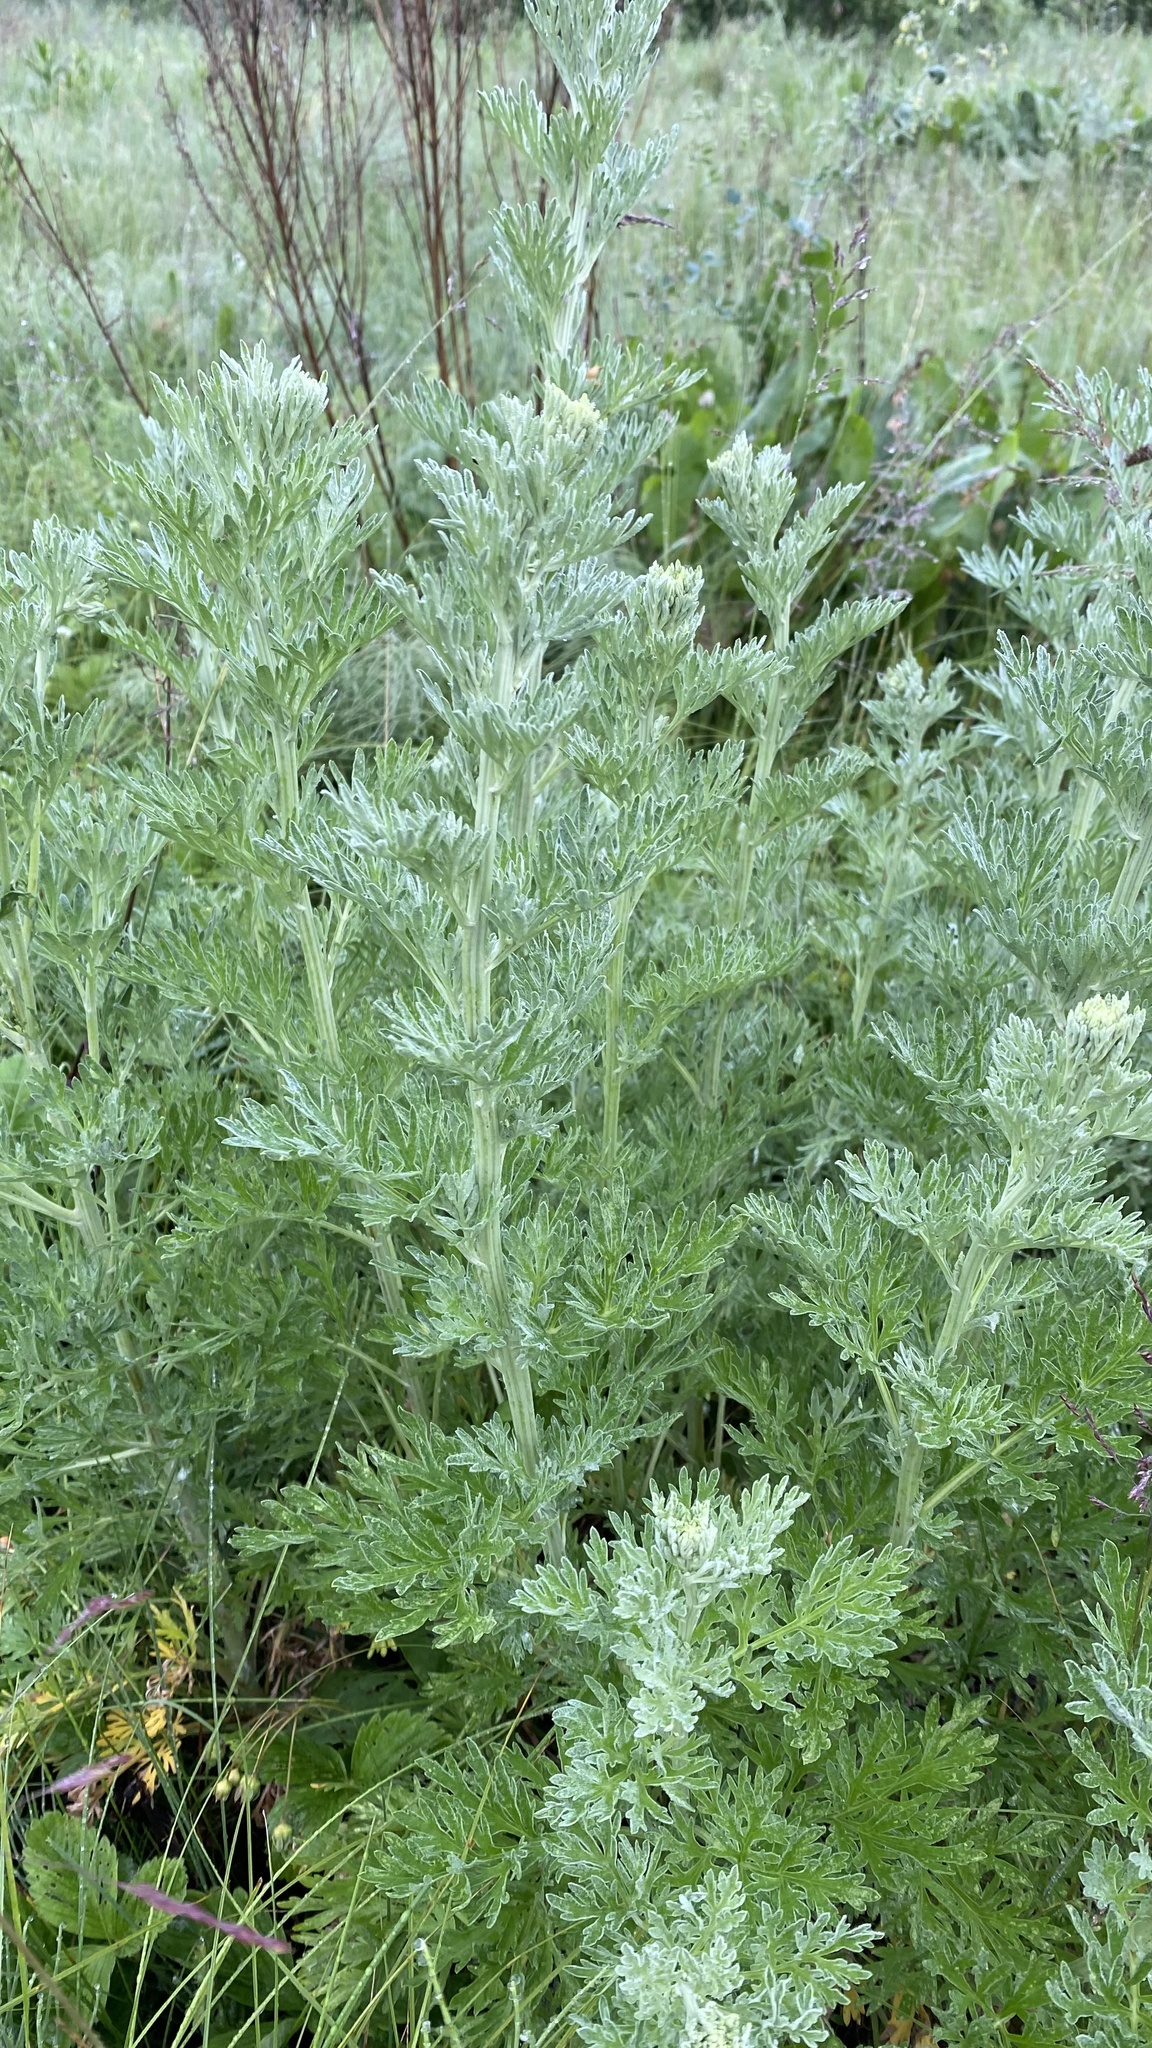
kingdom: Plantae
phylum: Tracheophyta
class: Magnoliopsida
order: Asterales
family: Asteraceae
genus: Artemisia
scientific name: Artemisia absinthium
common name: Wormwood
